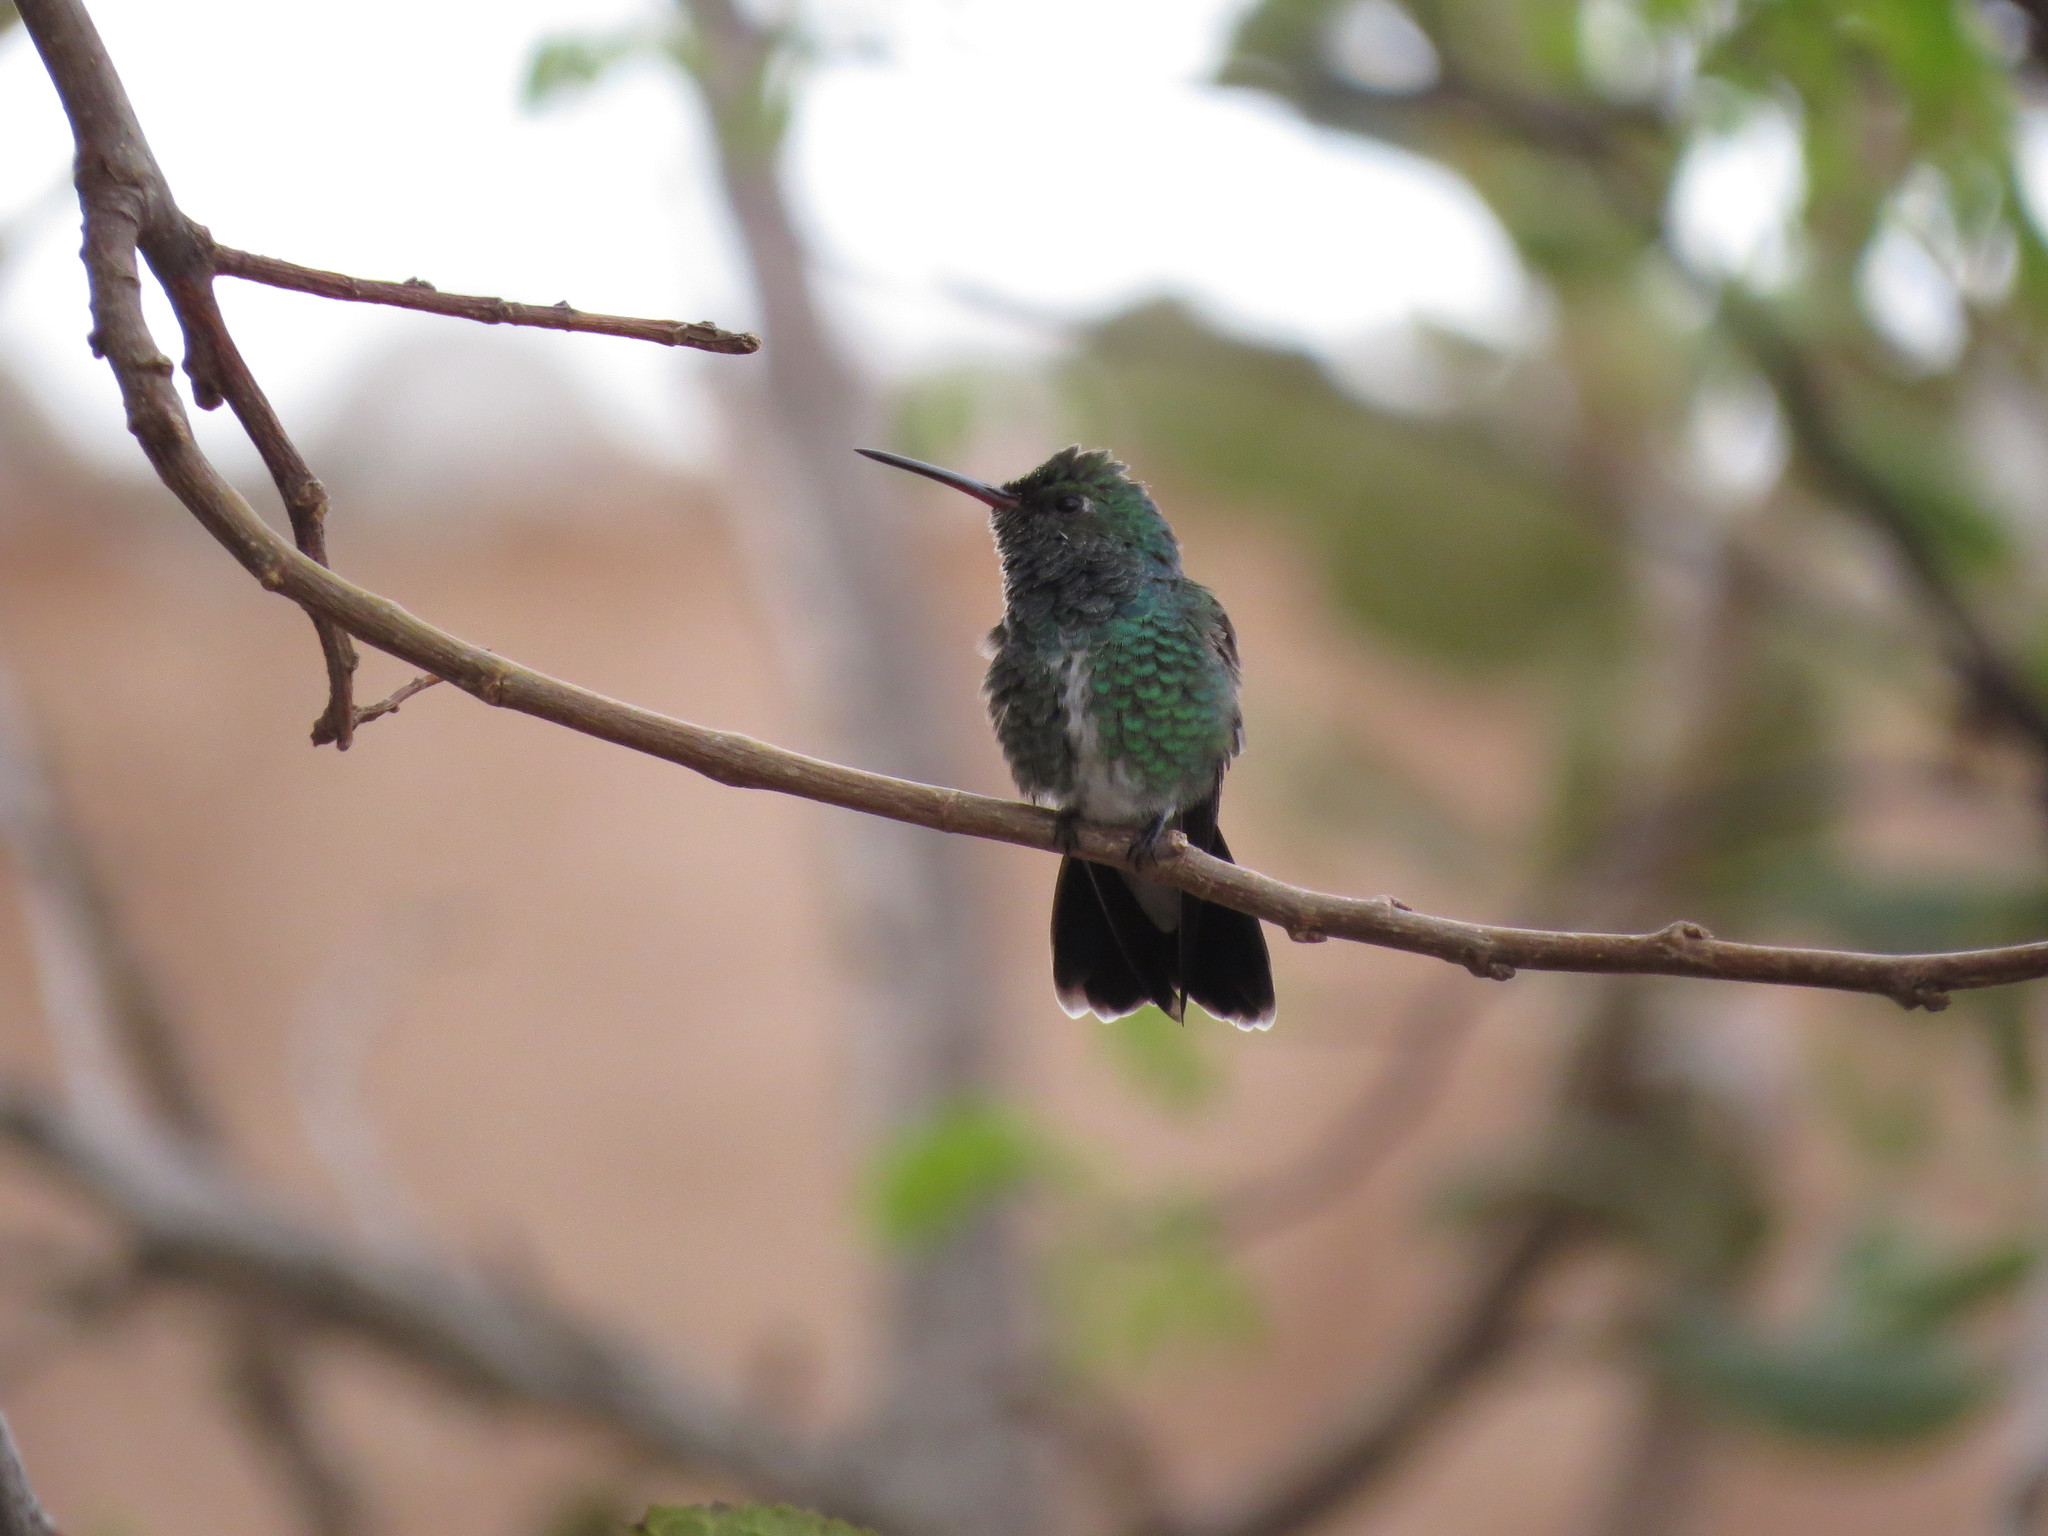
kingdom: Animalia
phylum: Chordata
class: Aves
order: Apodiformes
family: Trochilidae
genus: Chionomesa
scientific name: Chionomesa fimbriata
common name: Glittering-throated emerald
